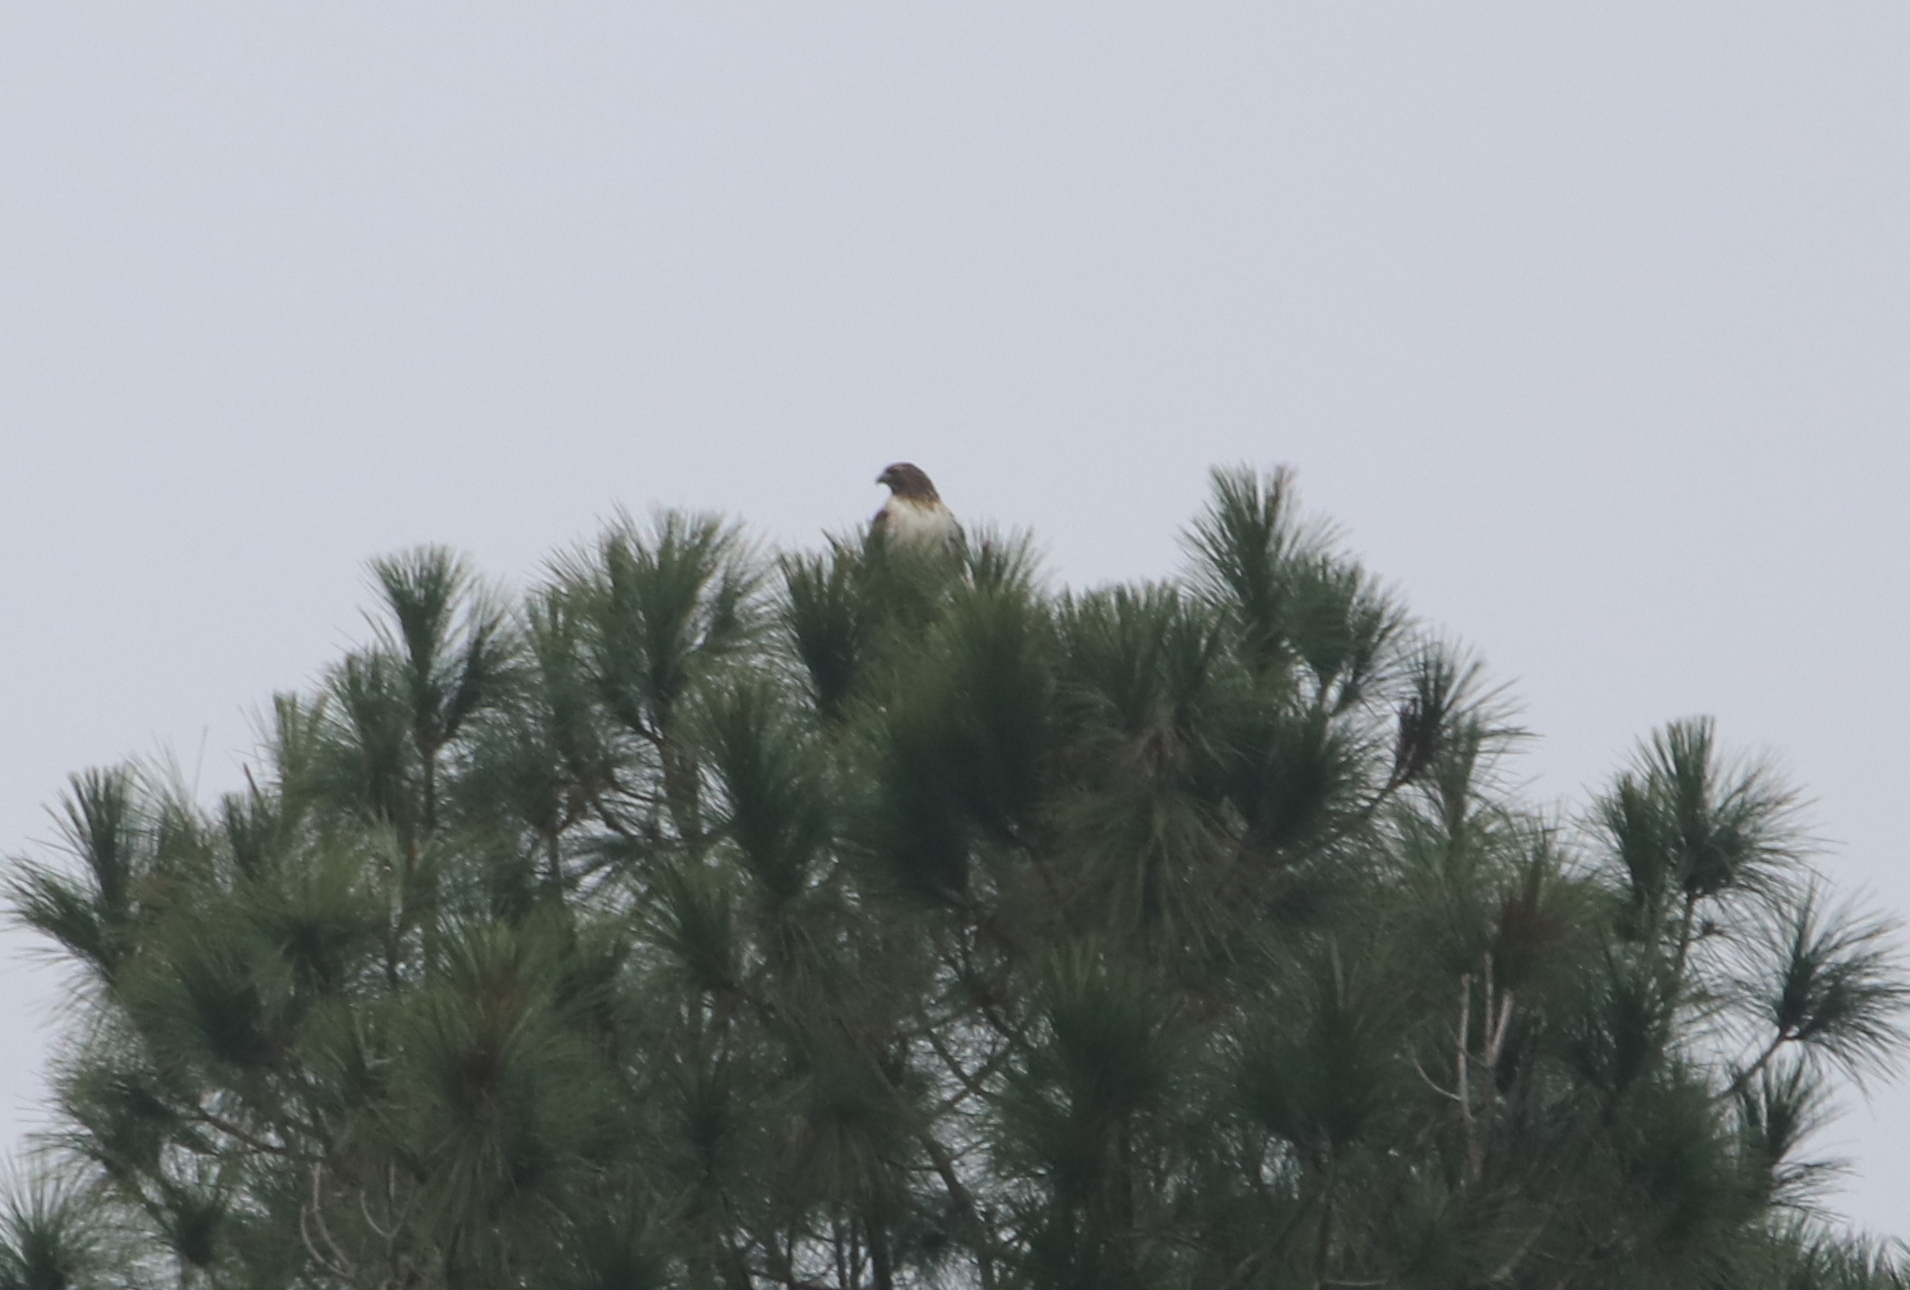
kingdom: Animalia
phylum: Chordata
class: Aves
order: Accipitriformes
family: Accipitridae
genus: Buteo
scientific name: Buteo jamaicensis
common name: Red-tailed hawk
